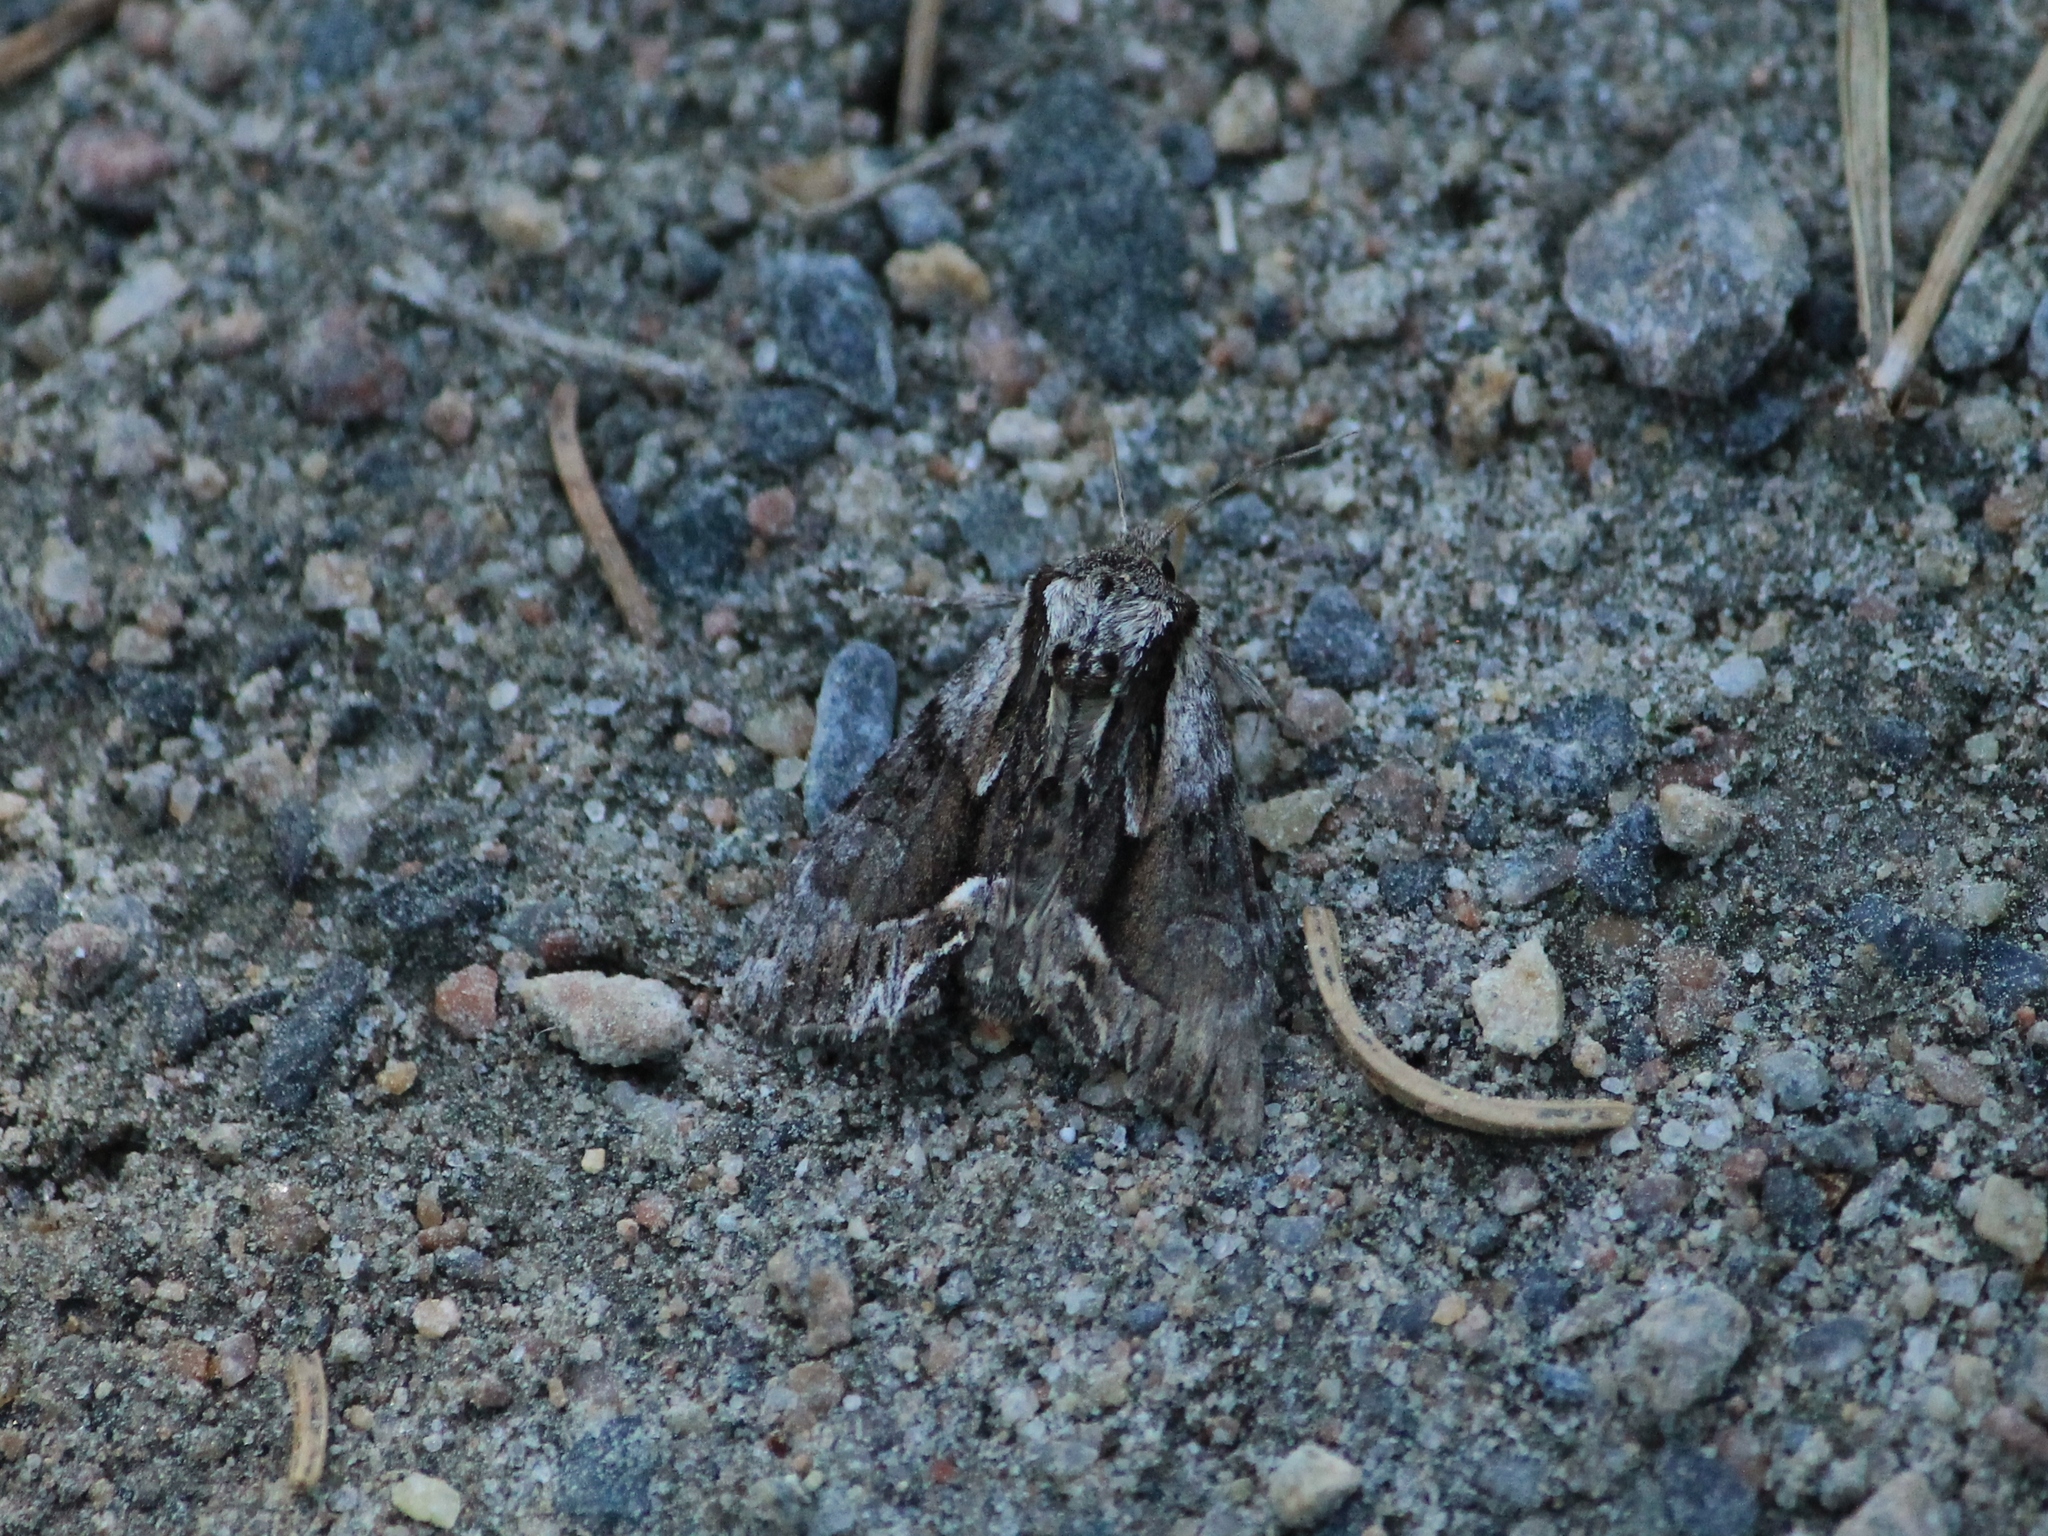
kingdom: Animalia
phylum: Arthropoda
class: Insecta
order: Lepidoptera
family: Noctuidae
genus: Hyppa
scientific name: Hyppa rectilinea
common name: Saxon
